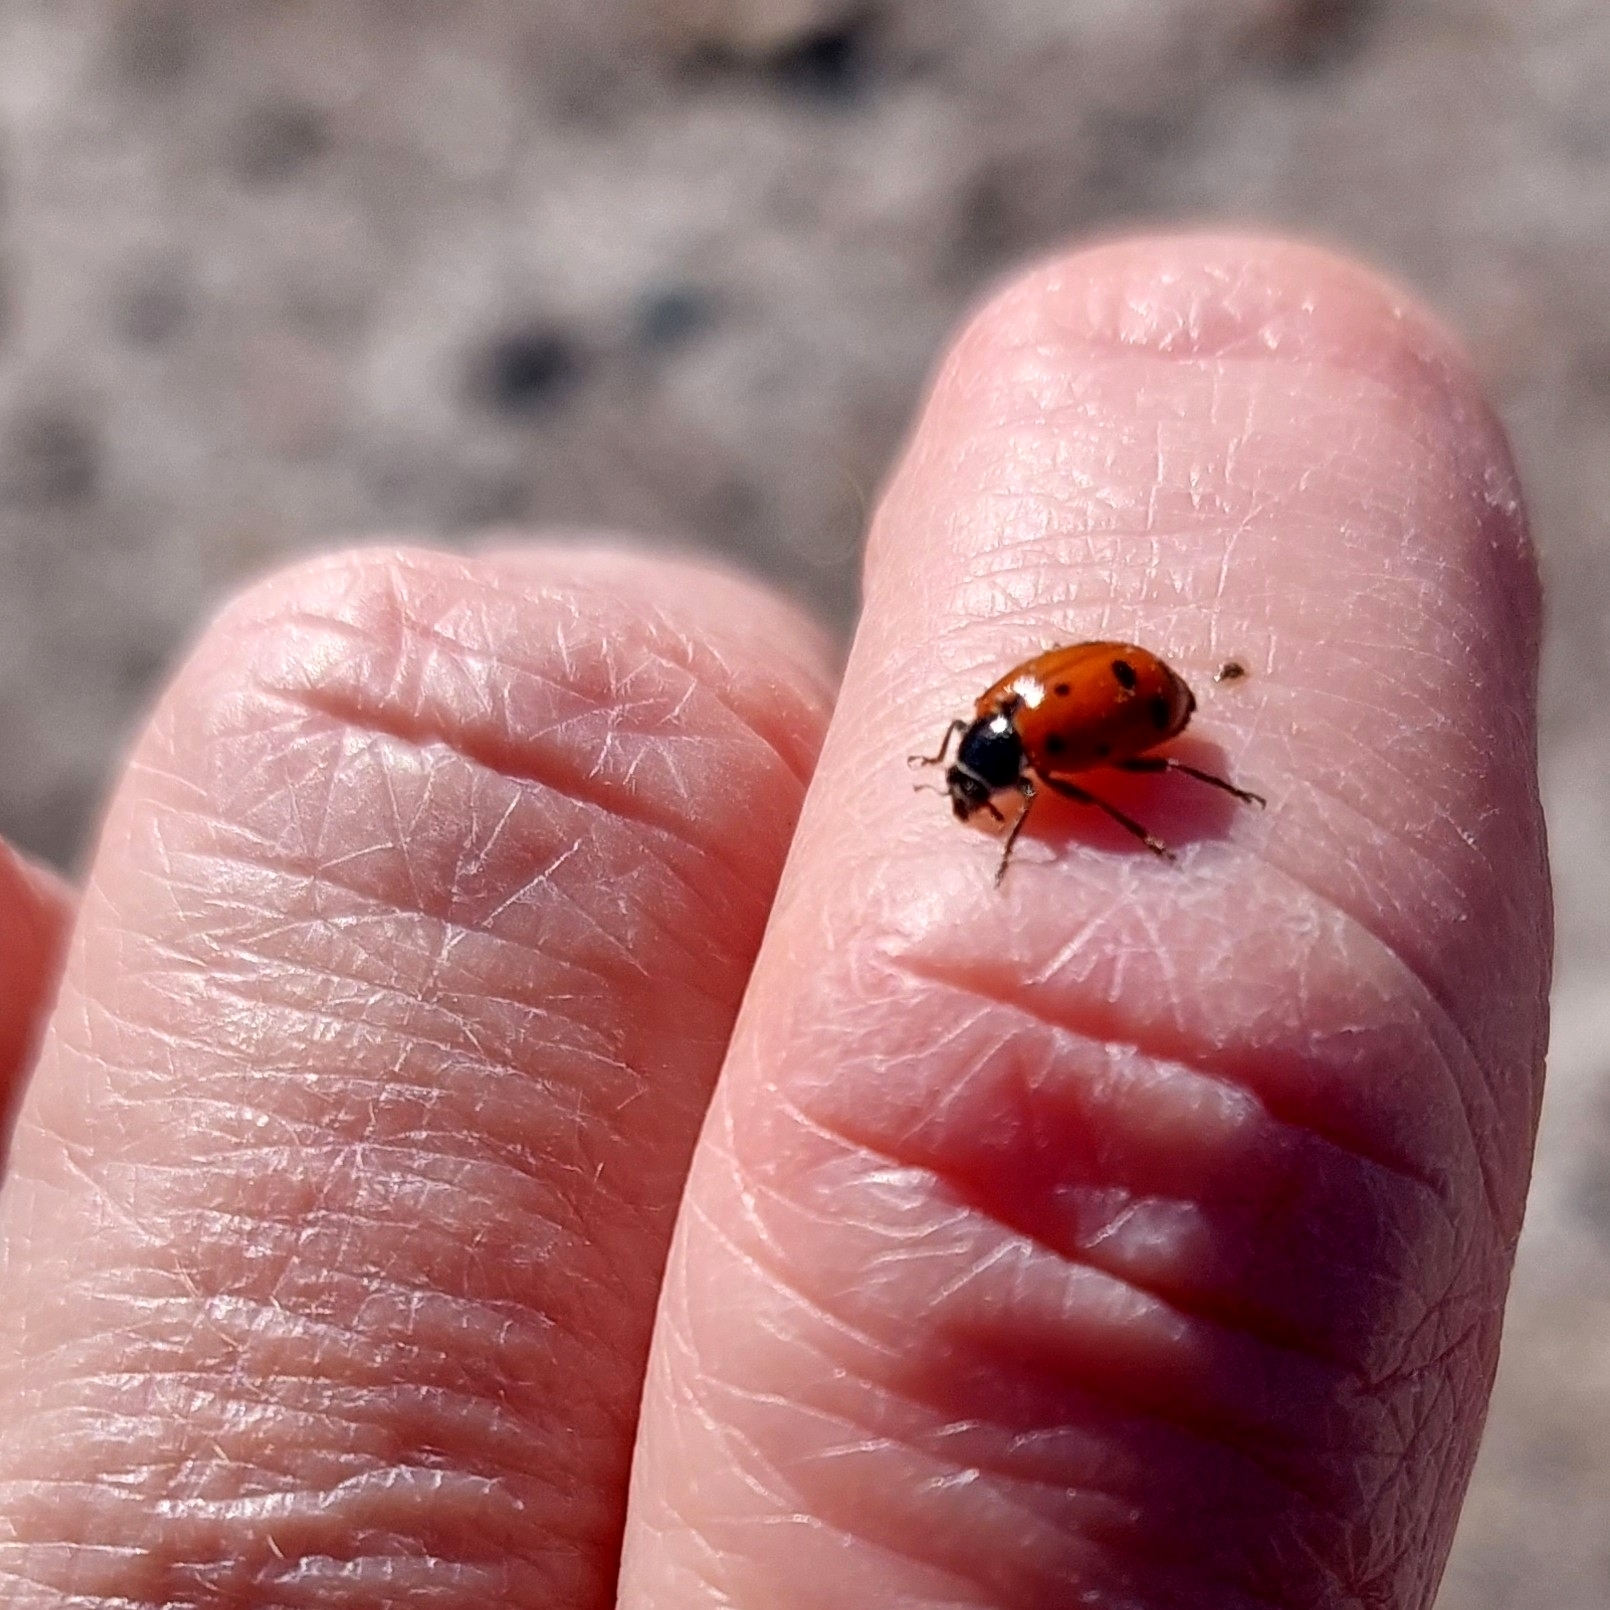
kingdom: Animalia
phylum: Arthropoda
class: Insecta
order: Coleoptera
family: Coccinellidae
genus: Hippodamia
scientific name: Hippodamia variegata
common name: Ladybird beetle
